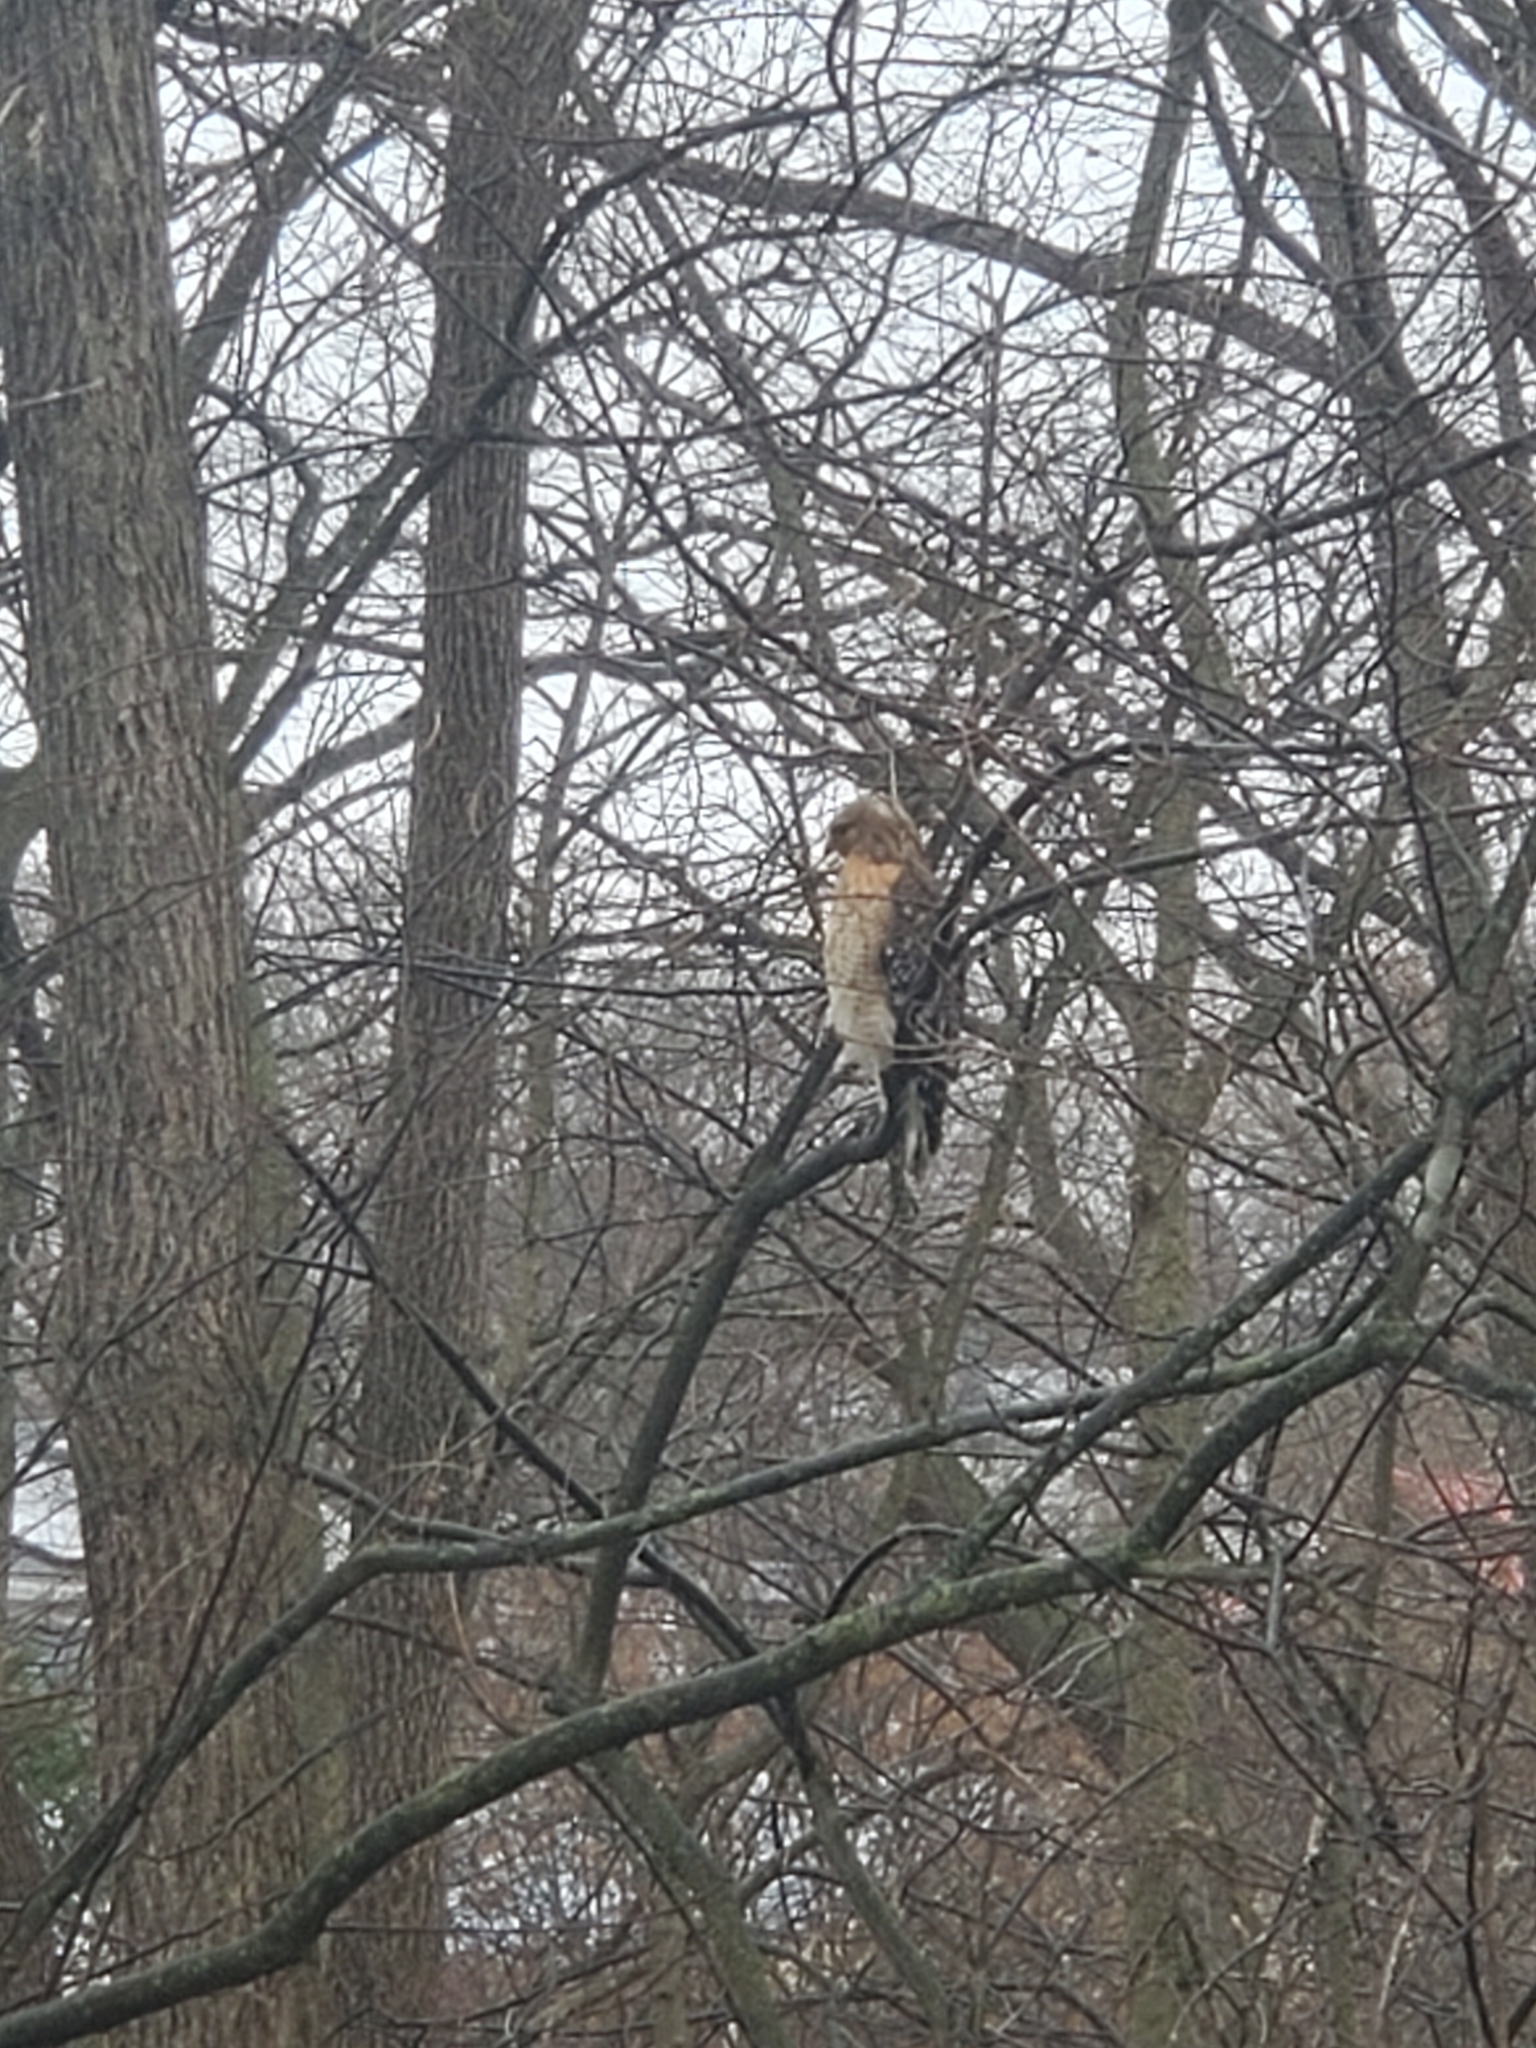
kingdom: Animalia
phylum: Chordata
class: Aves
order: Accipitriformes
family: Accipitridae
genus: Buteo
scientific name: Buteo lineatus
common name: Red-shouldered hawk
